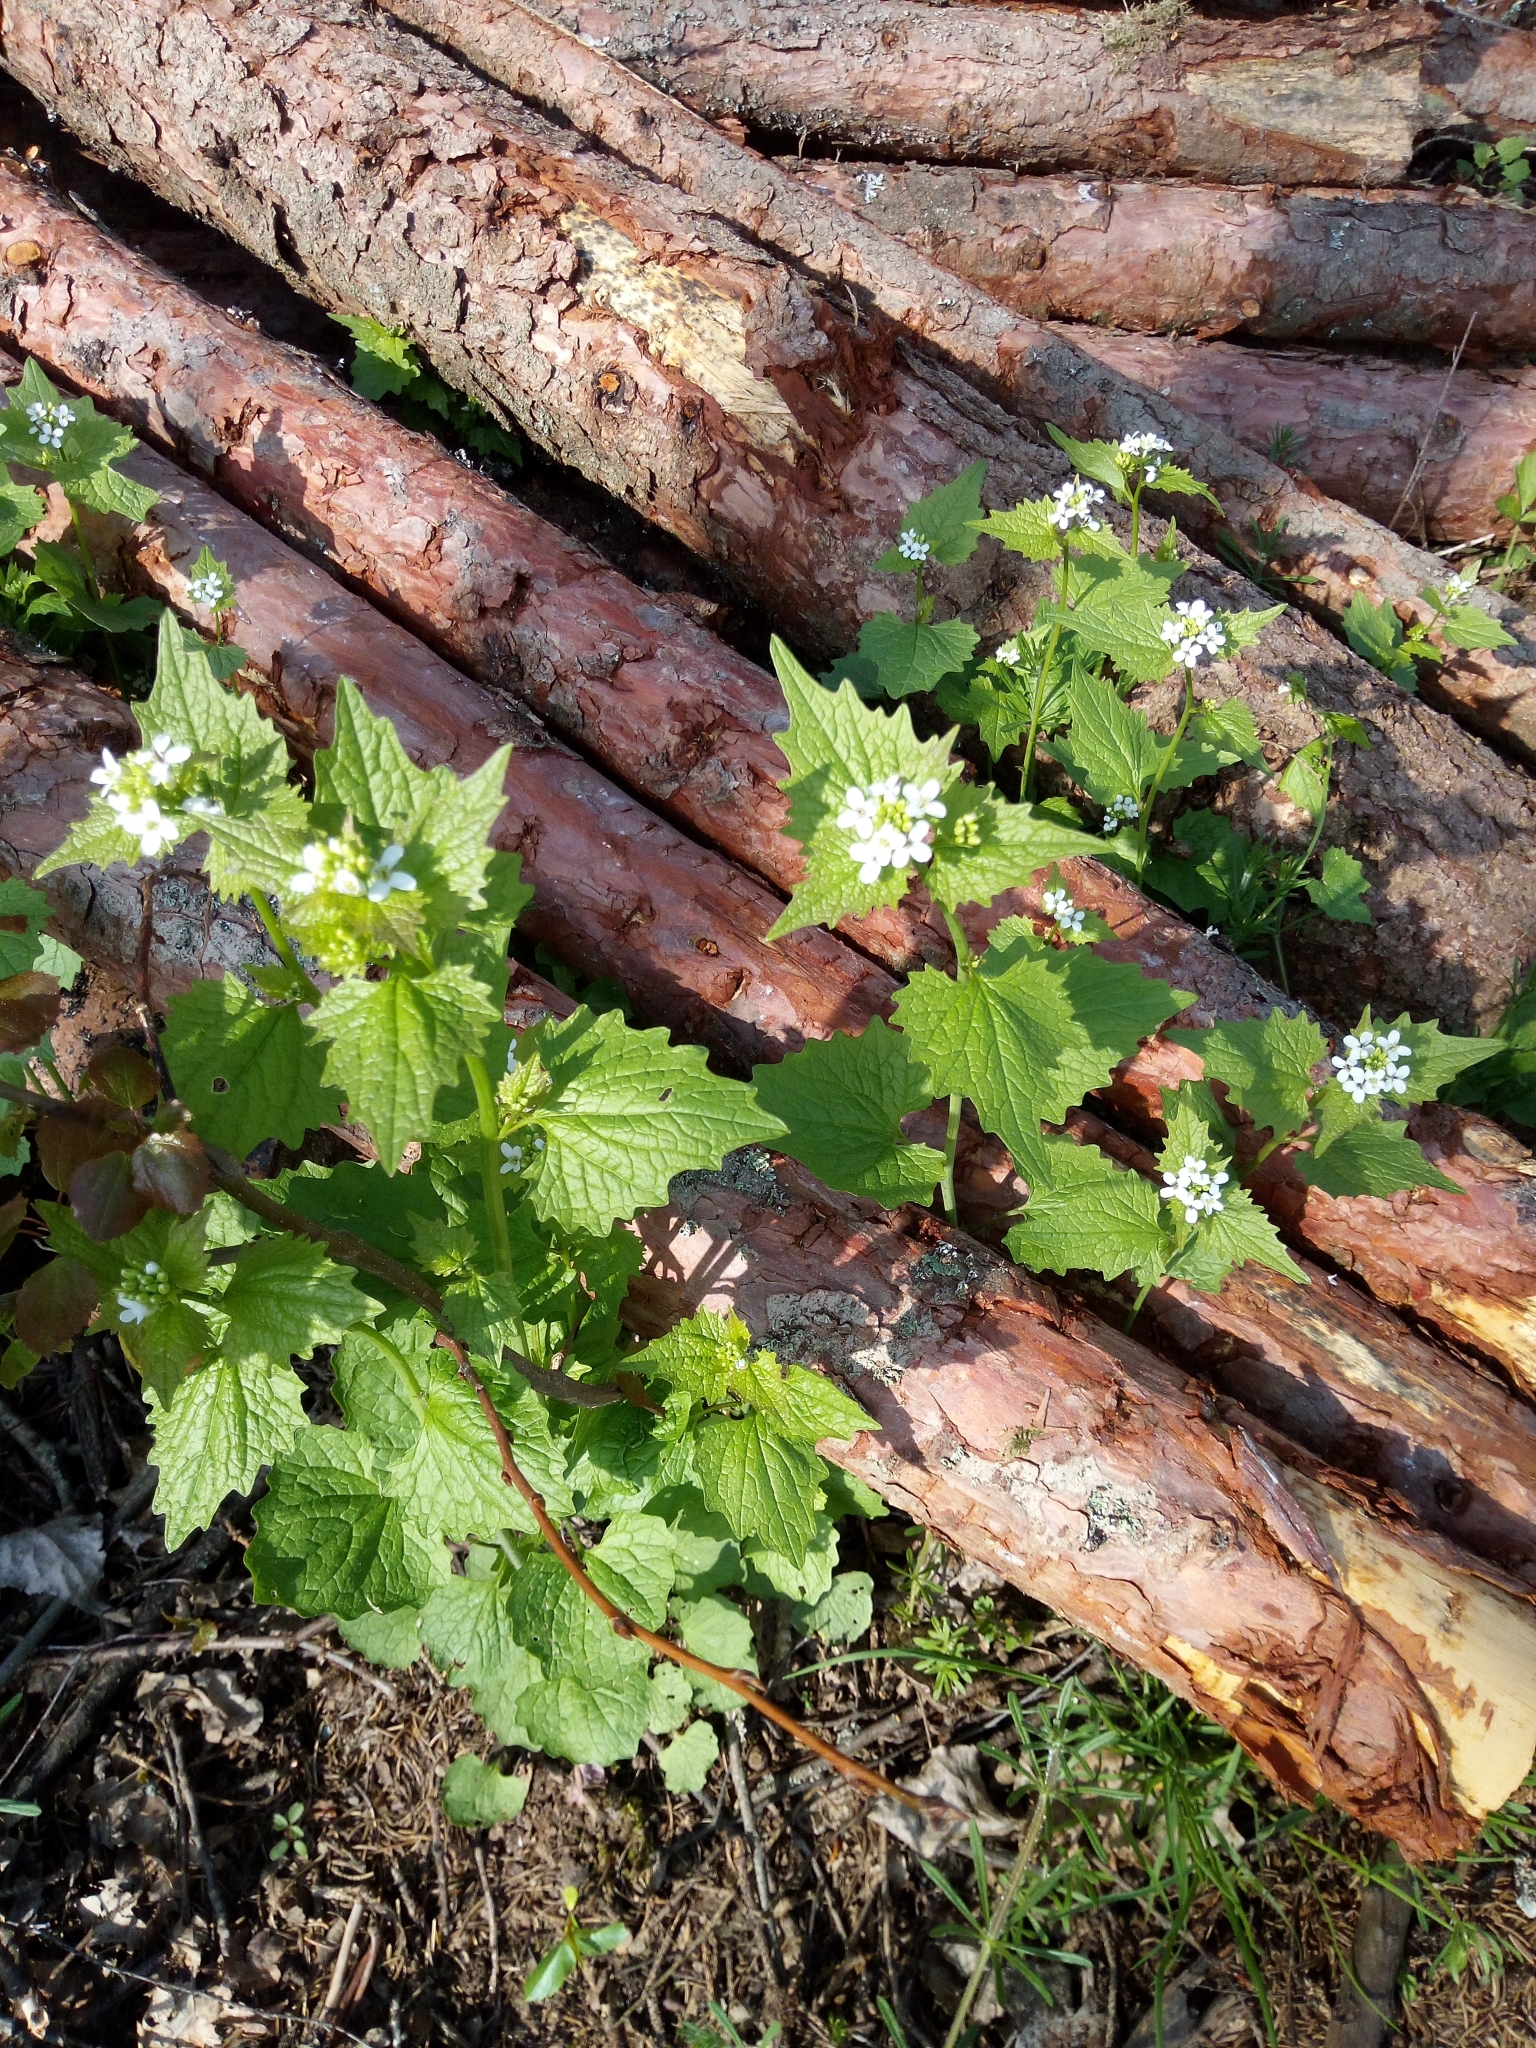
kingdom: Plantae
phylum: Tracheophyta
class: Magnoliopsida
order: Brassicales
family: Brassicaceae
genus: Alliaria
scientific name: Alliaria petiolata
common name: Garlic mustard
